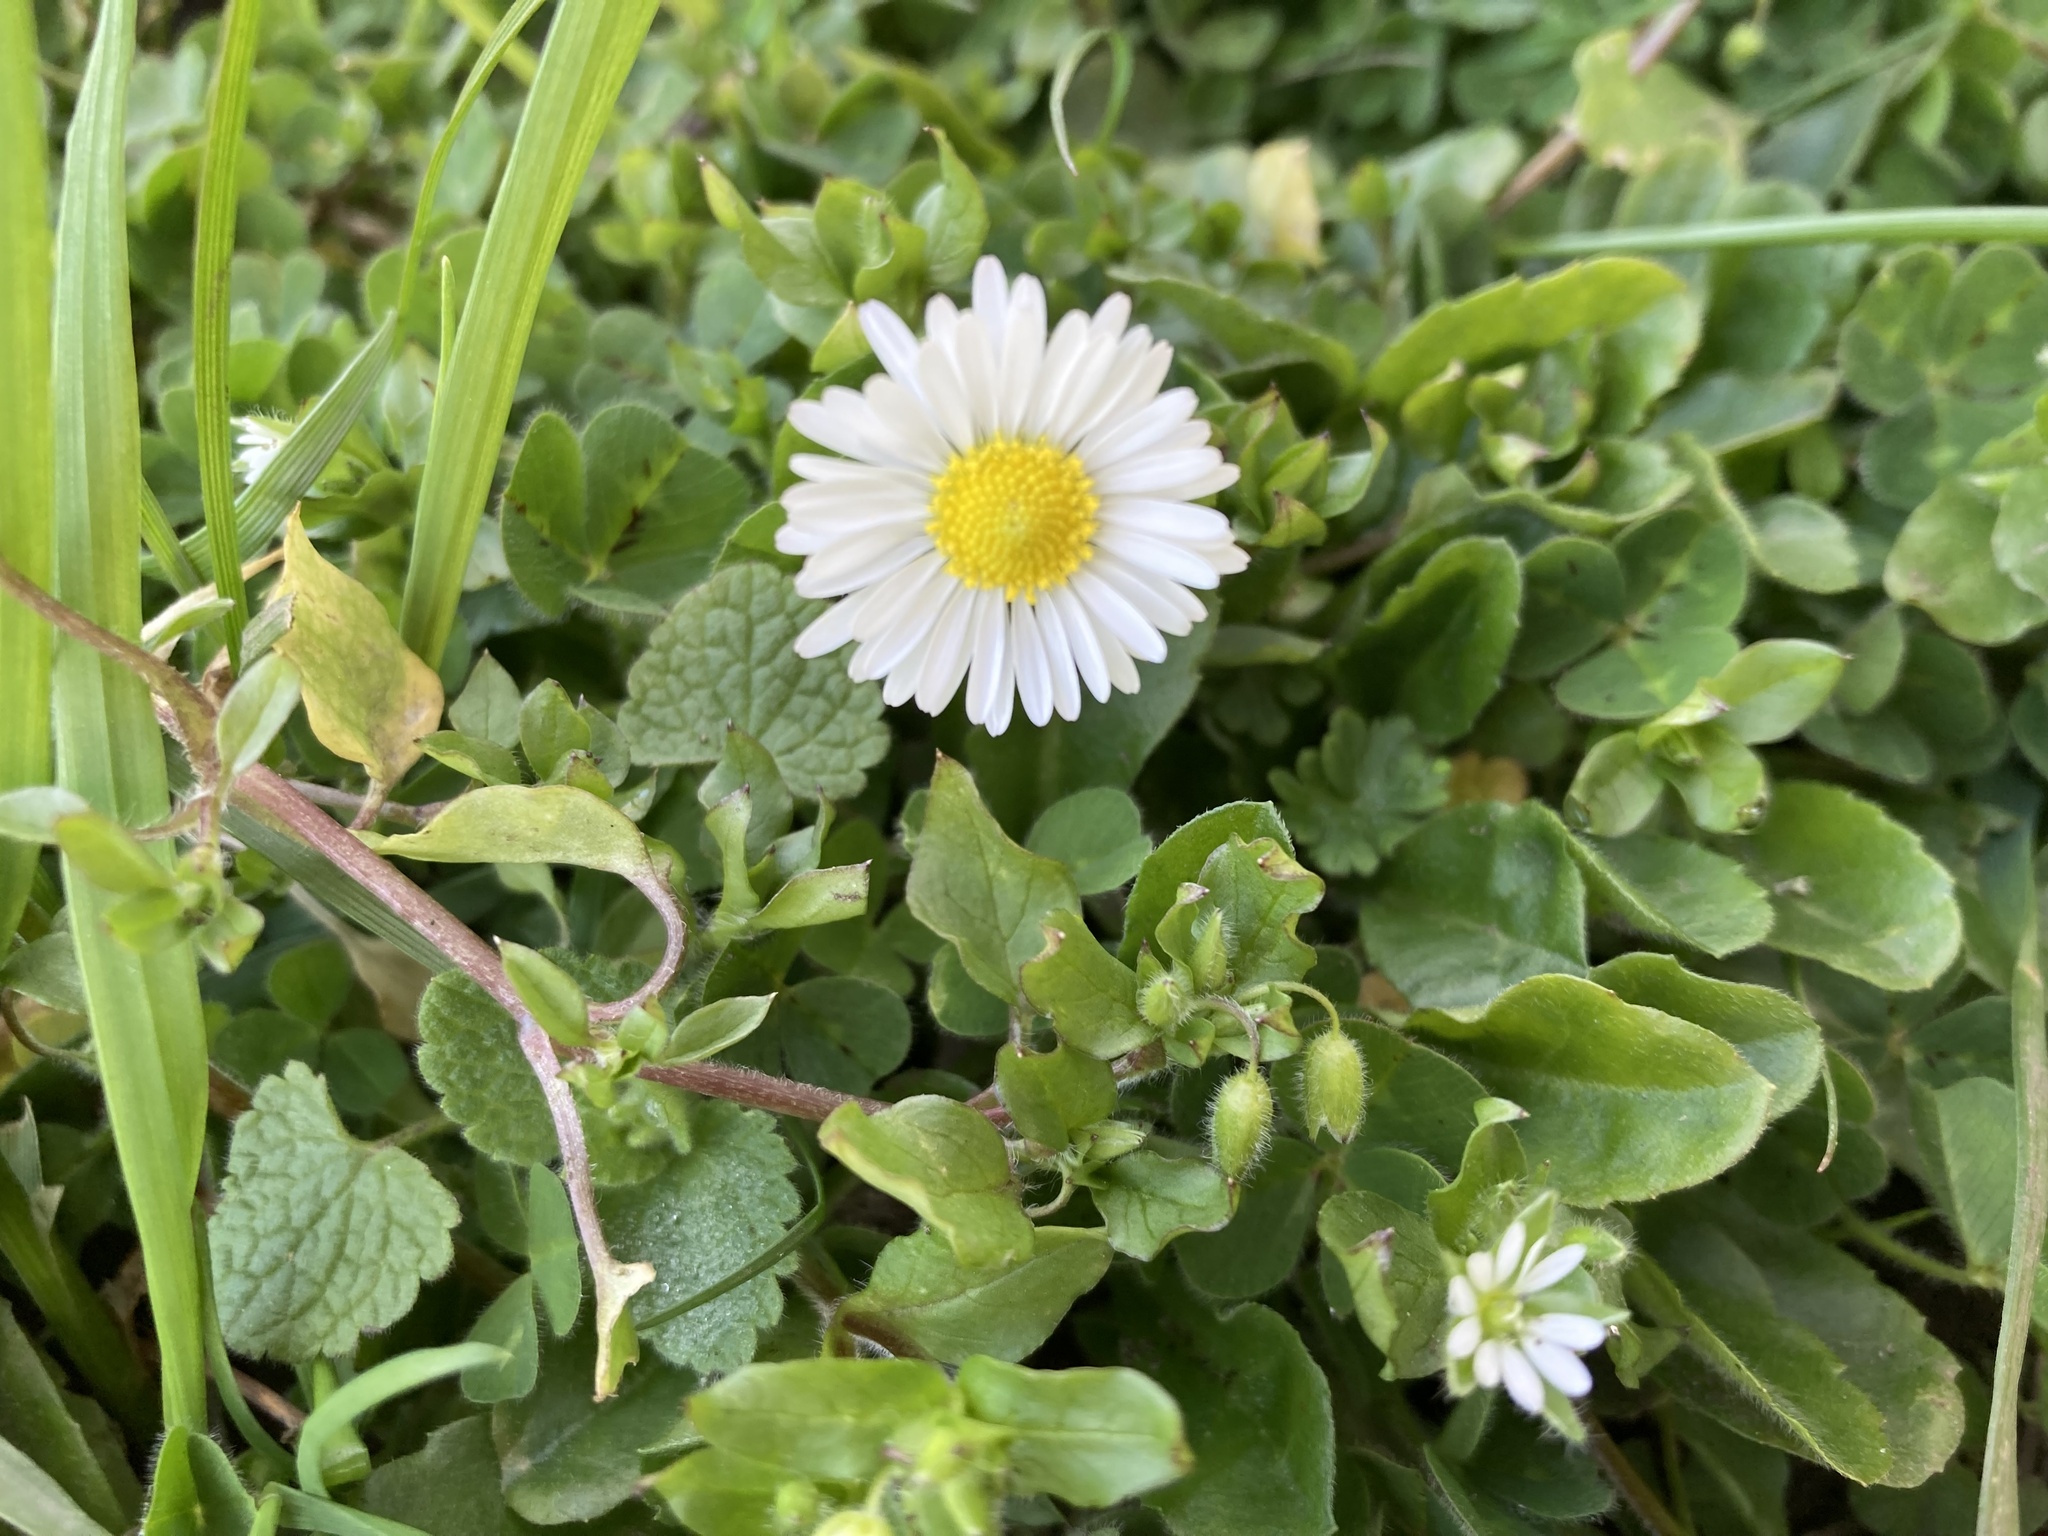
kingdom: Plantae
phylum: Tracheophyta
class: Magnoliopsida
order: Asterales
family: Asteraceae
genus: Bellis
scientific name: Bellis perennis
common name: Lawndaisy
